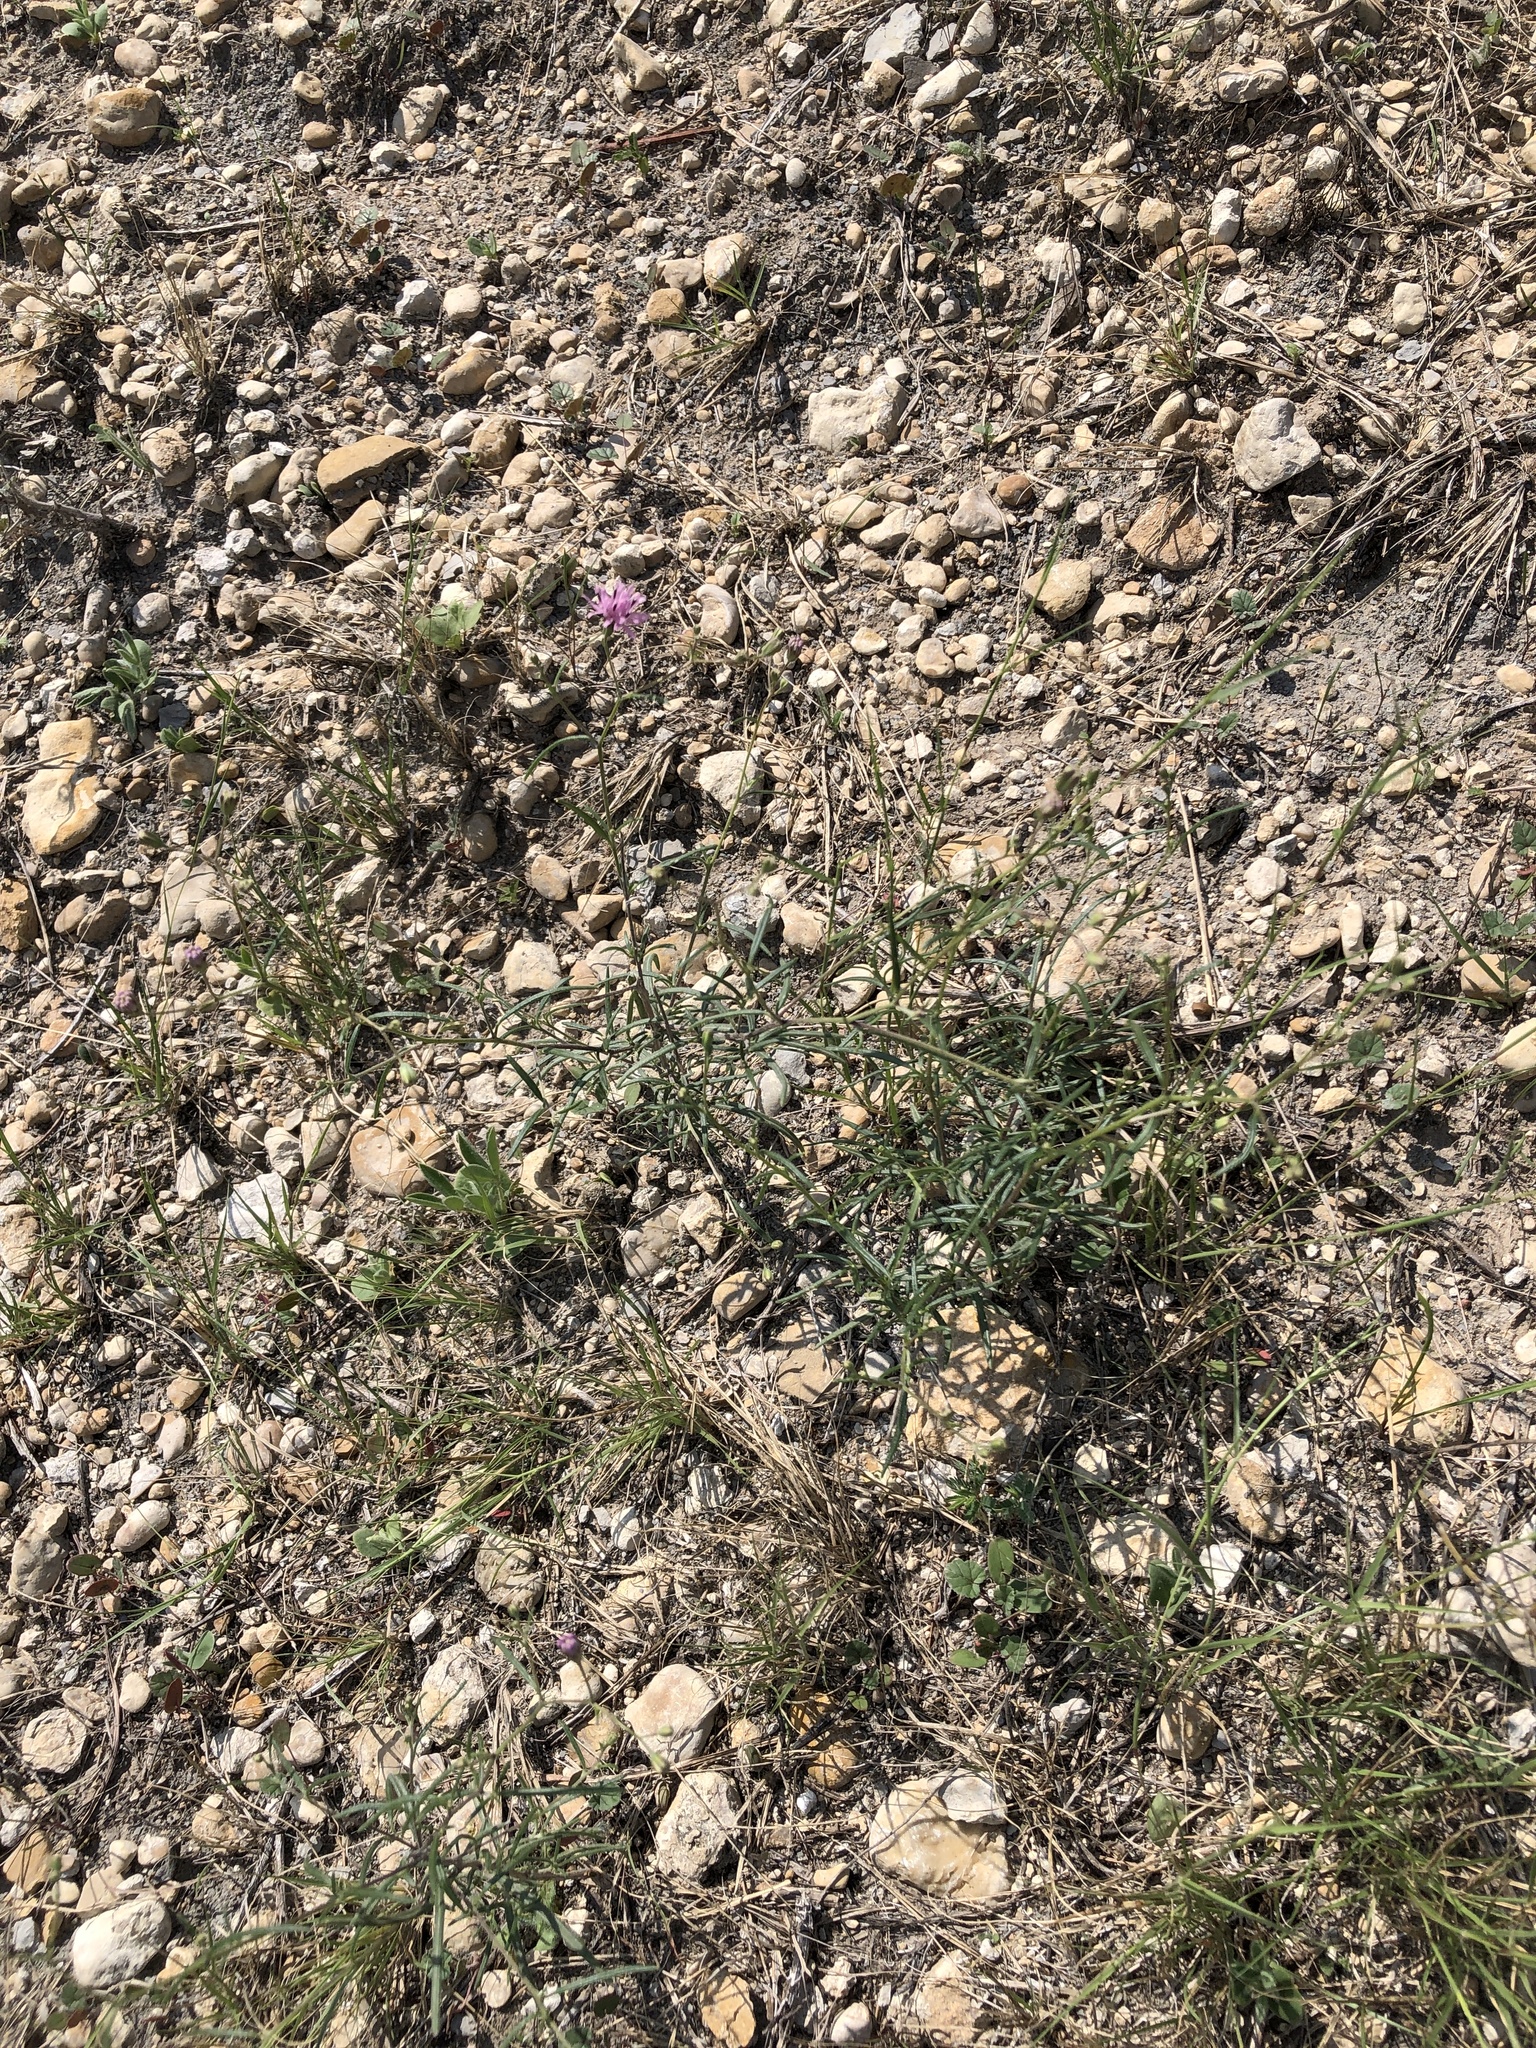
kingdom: Plantae
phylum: Tracheophyta
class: Magnoliopsida
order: Asterales
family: Asteraceae
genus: Palafoxia
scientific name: Palafoxia callosa
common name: Small palafox
